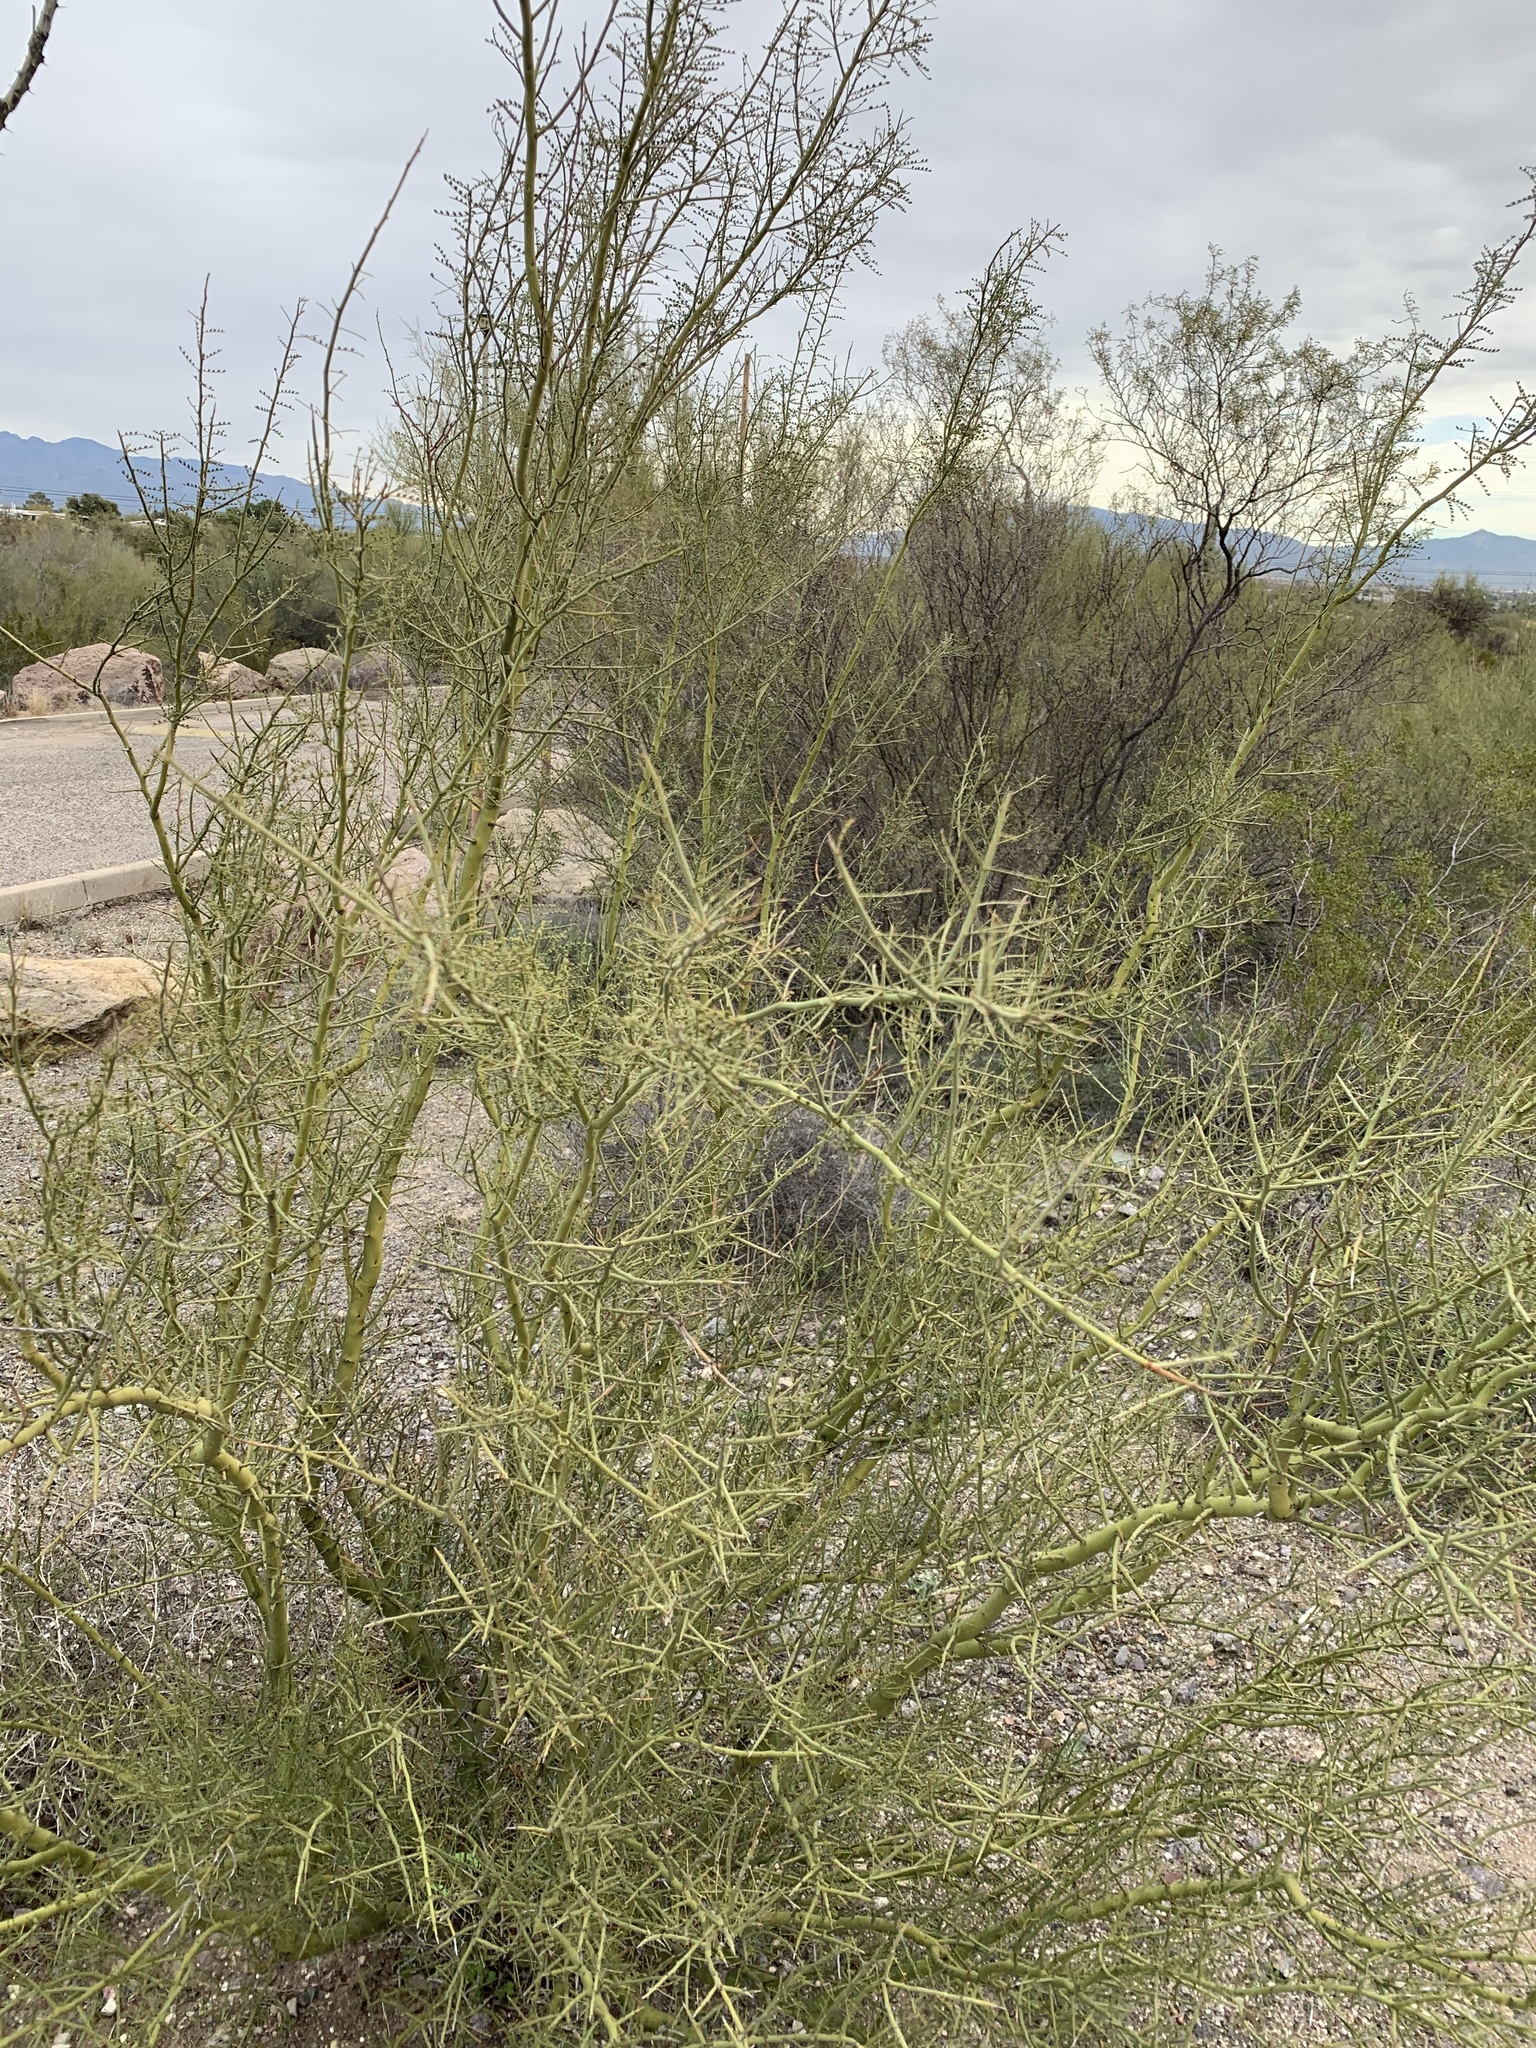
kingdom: Plantae
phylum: Tracheophyta
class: Magnoliopsida
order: Fabales
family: Fabaceae
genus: Parkinsonia
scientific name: Parkinsonia microphylla
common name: Yellow paloverde
